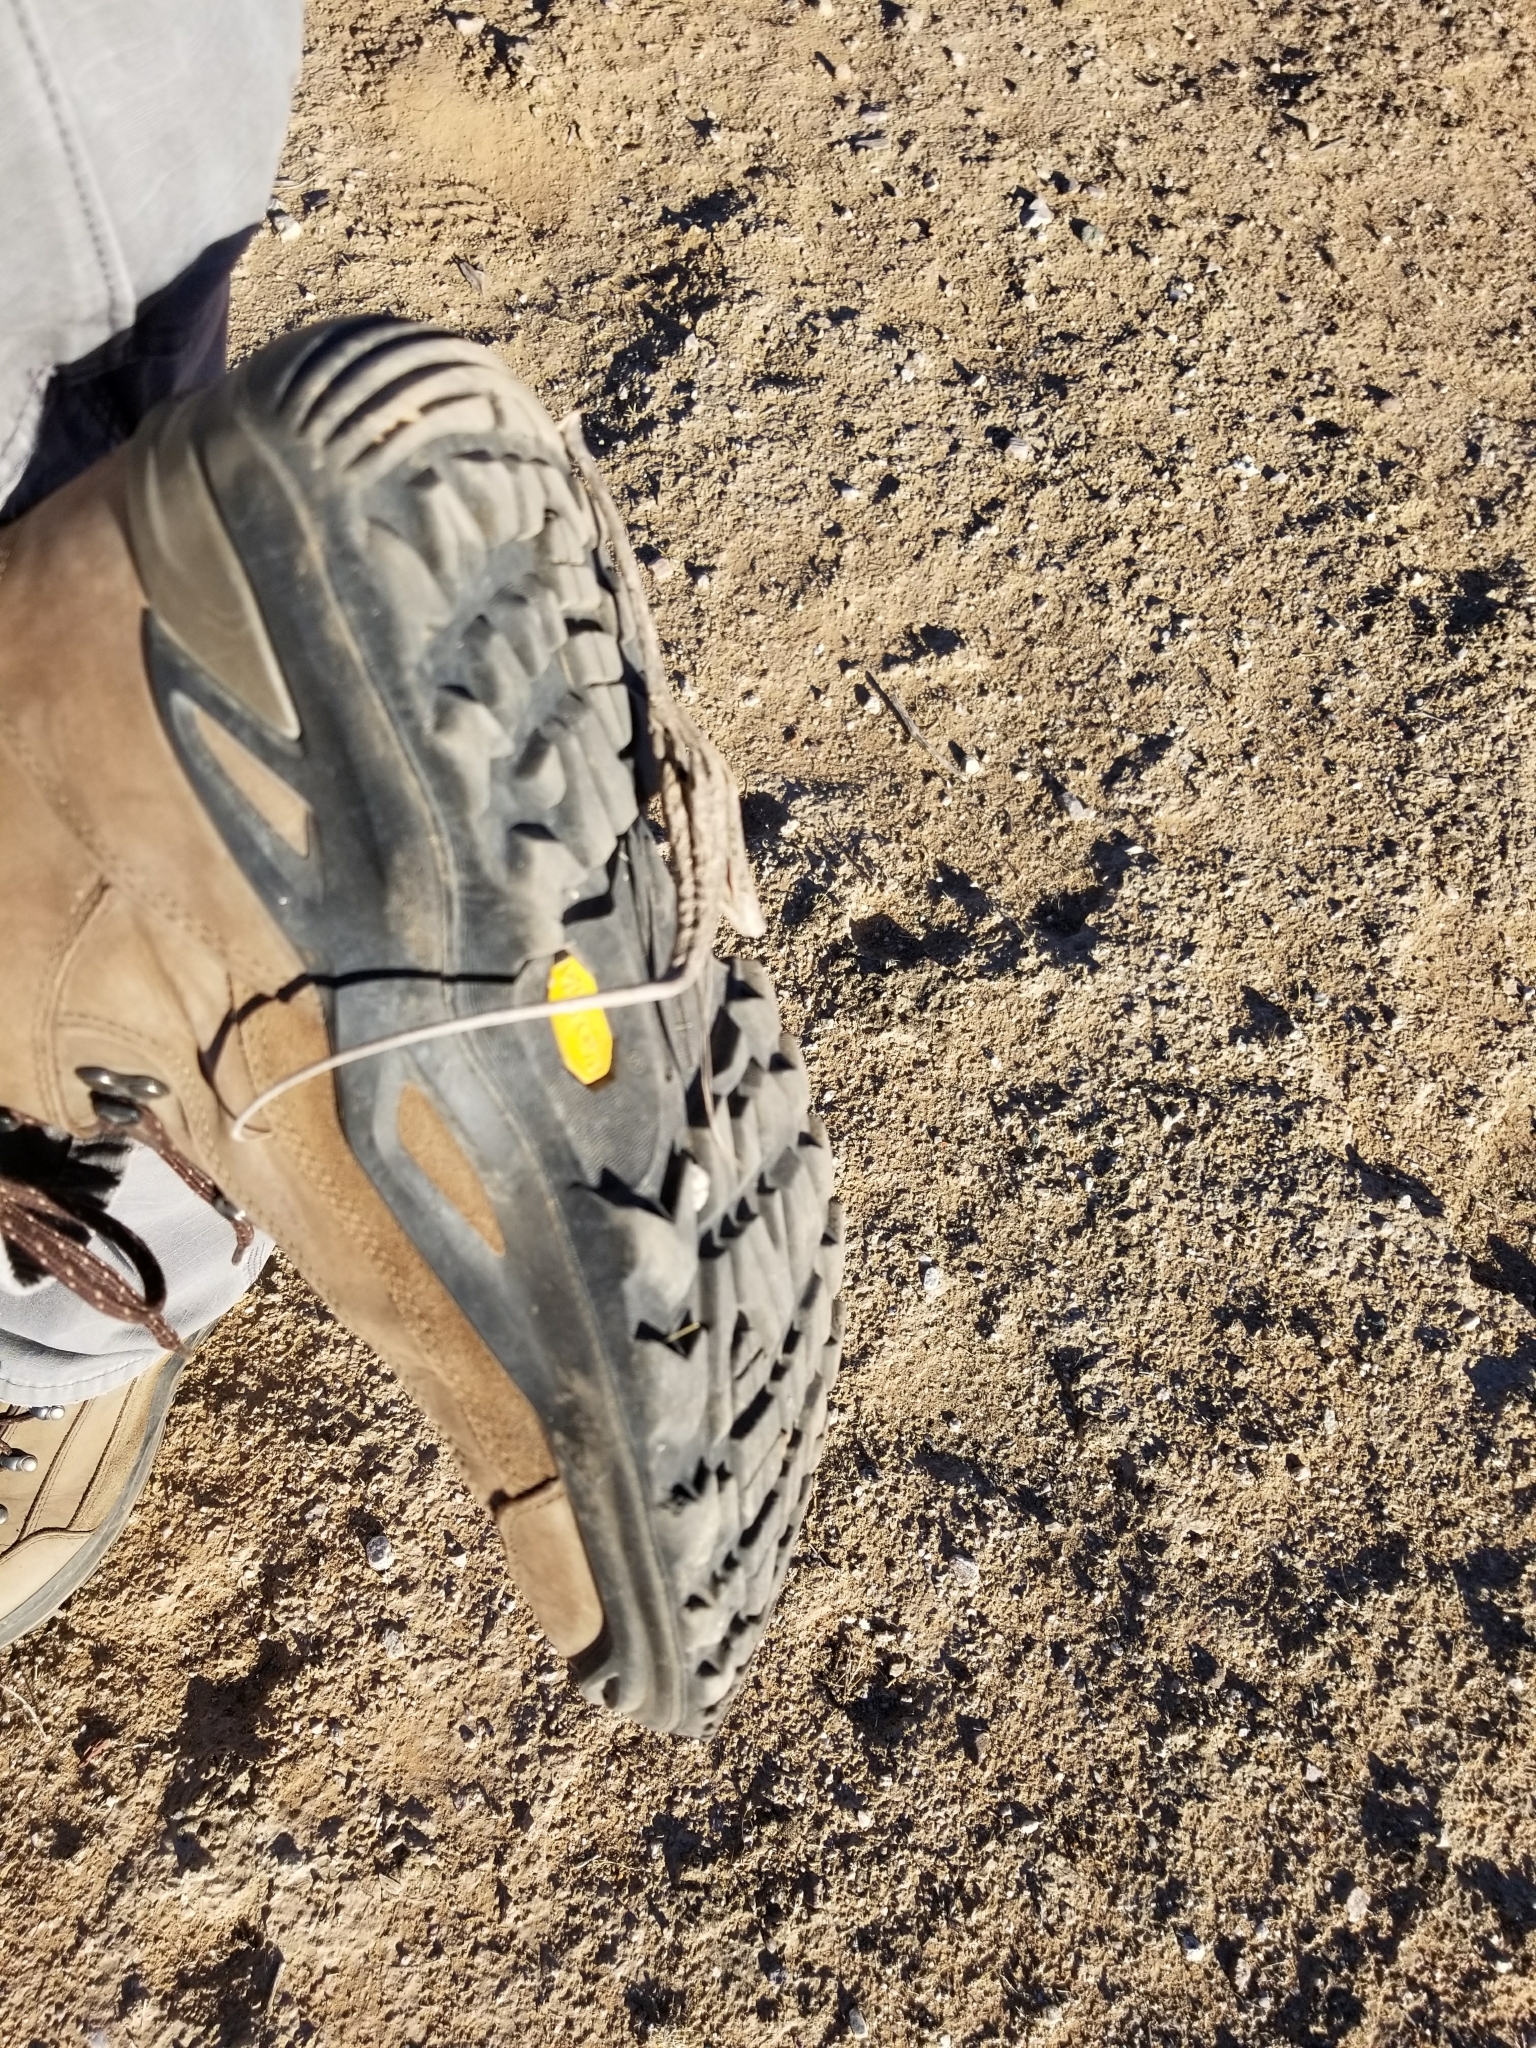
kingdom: Plantae
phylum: Tracheophyta
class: Magnoliopsida
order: Lamiales
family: Martyniaceae
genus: Proboscidea
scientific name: Proboscidea althaeifolia
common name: Desert unicorn-plant
